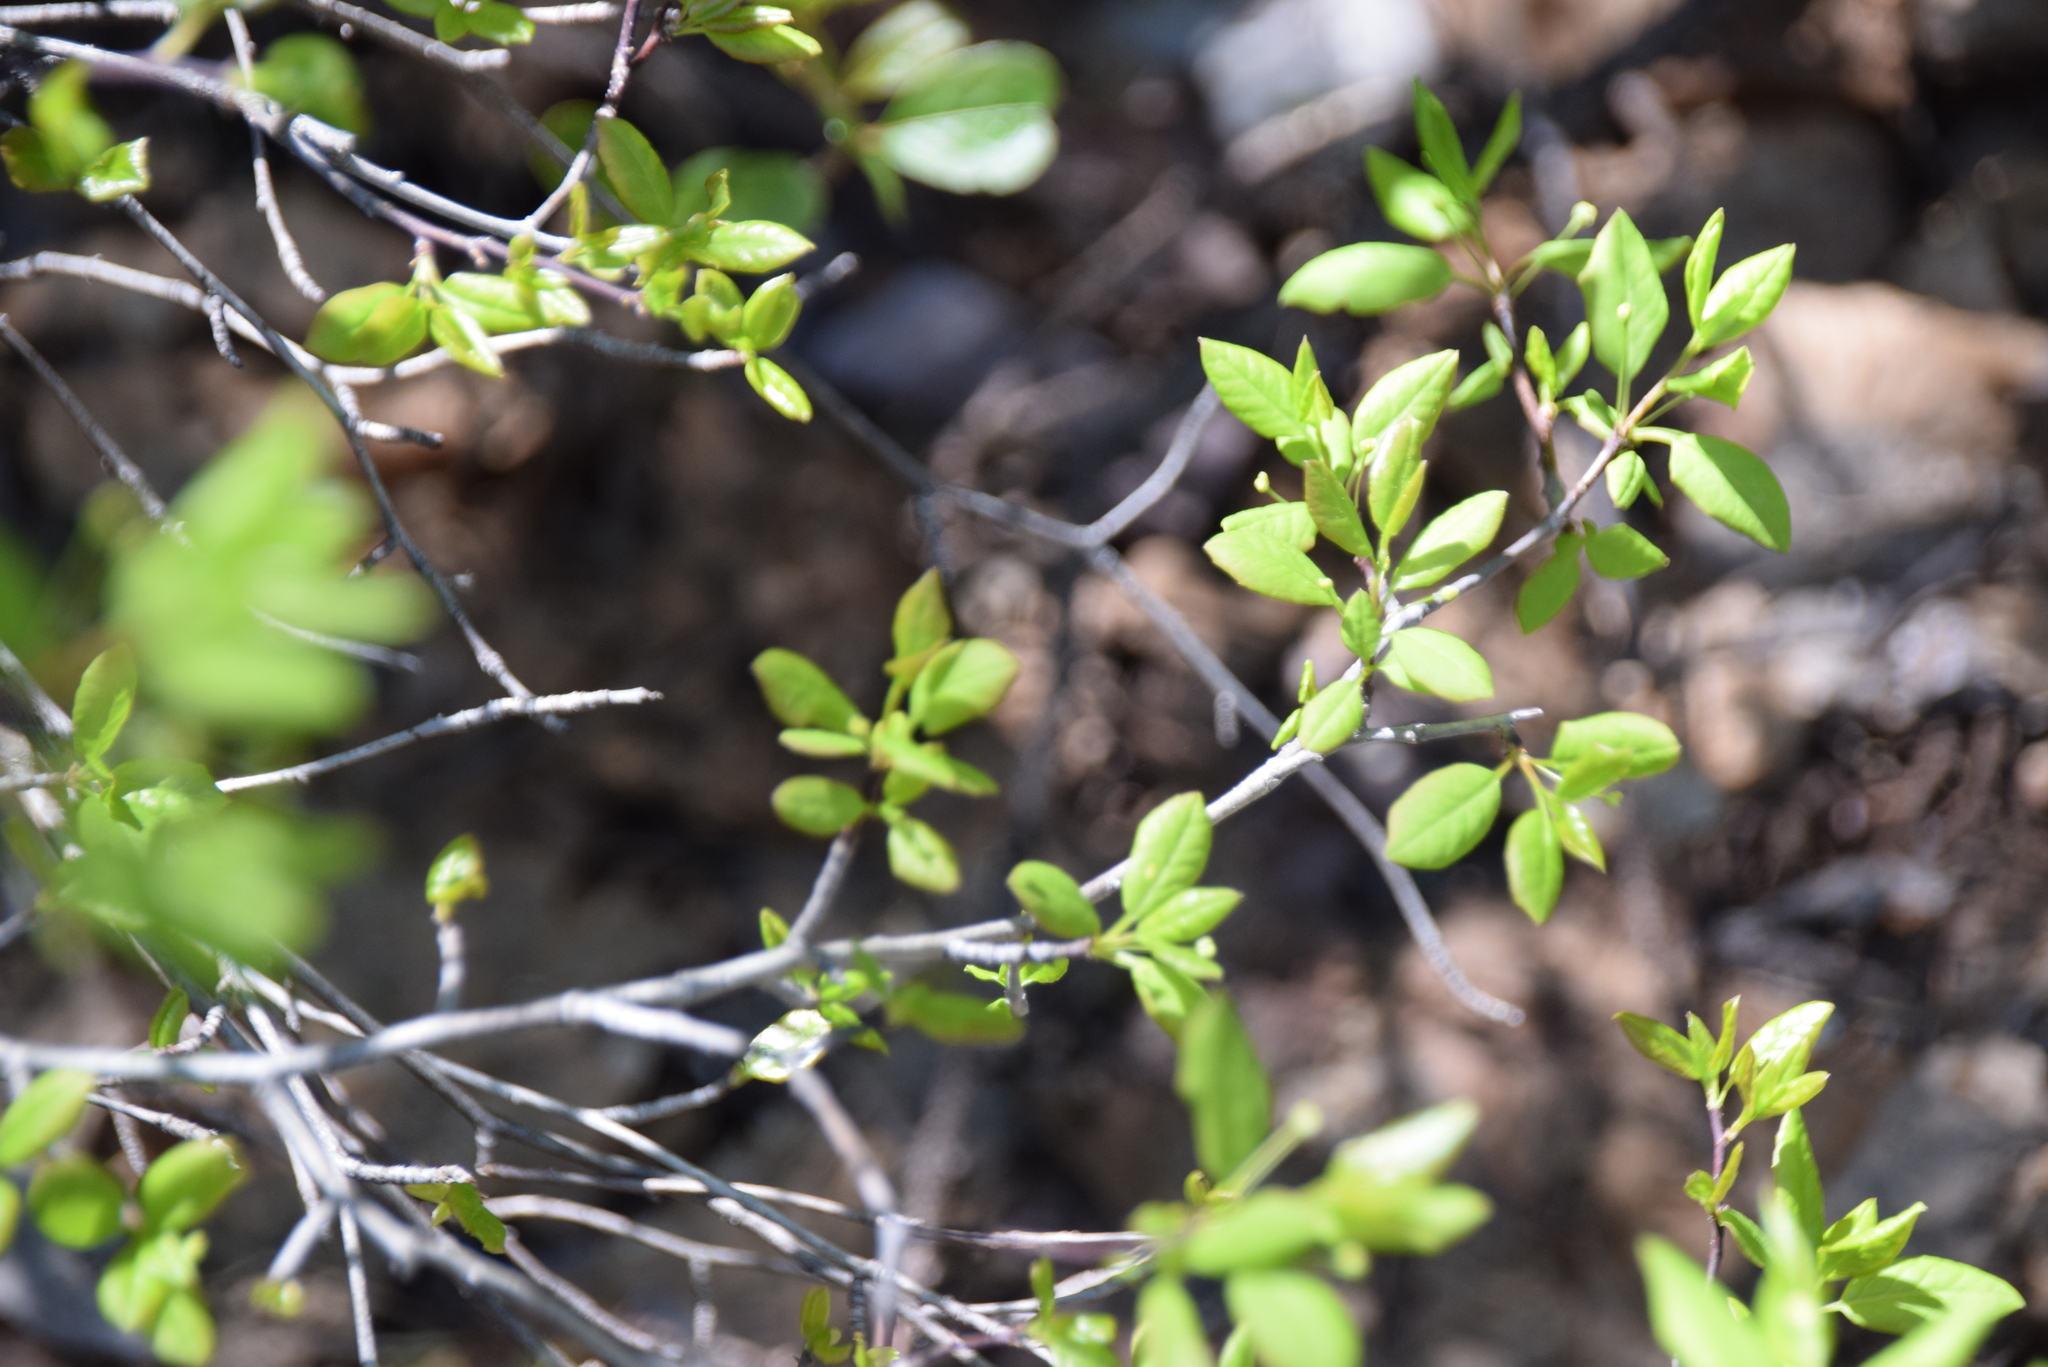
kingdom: Plantae
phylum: Tracheophyta
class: Magnoliopsida
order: Aquifoliales
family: Aquifoliaceae
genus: Ilex
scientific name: Ilex mucronata
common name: Catberry
